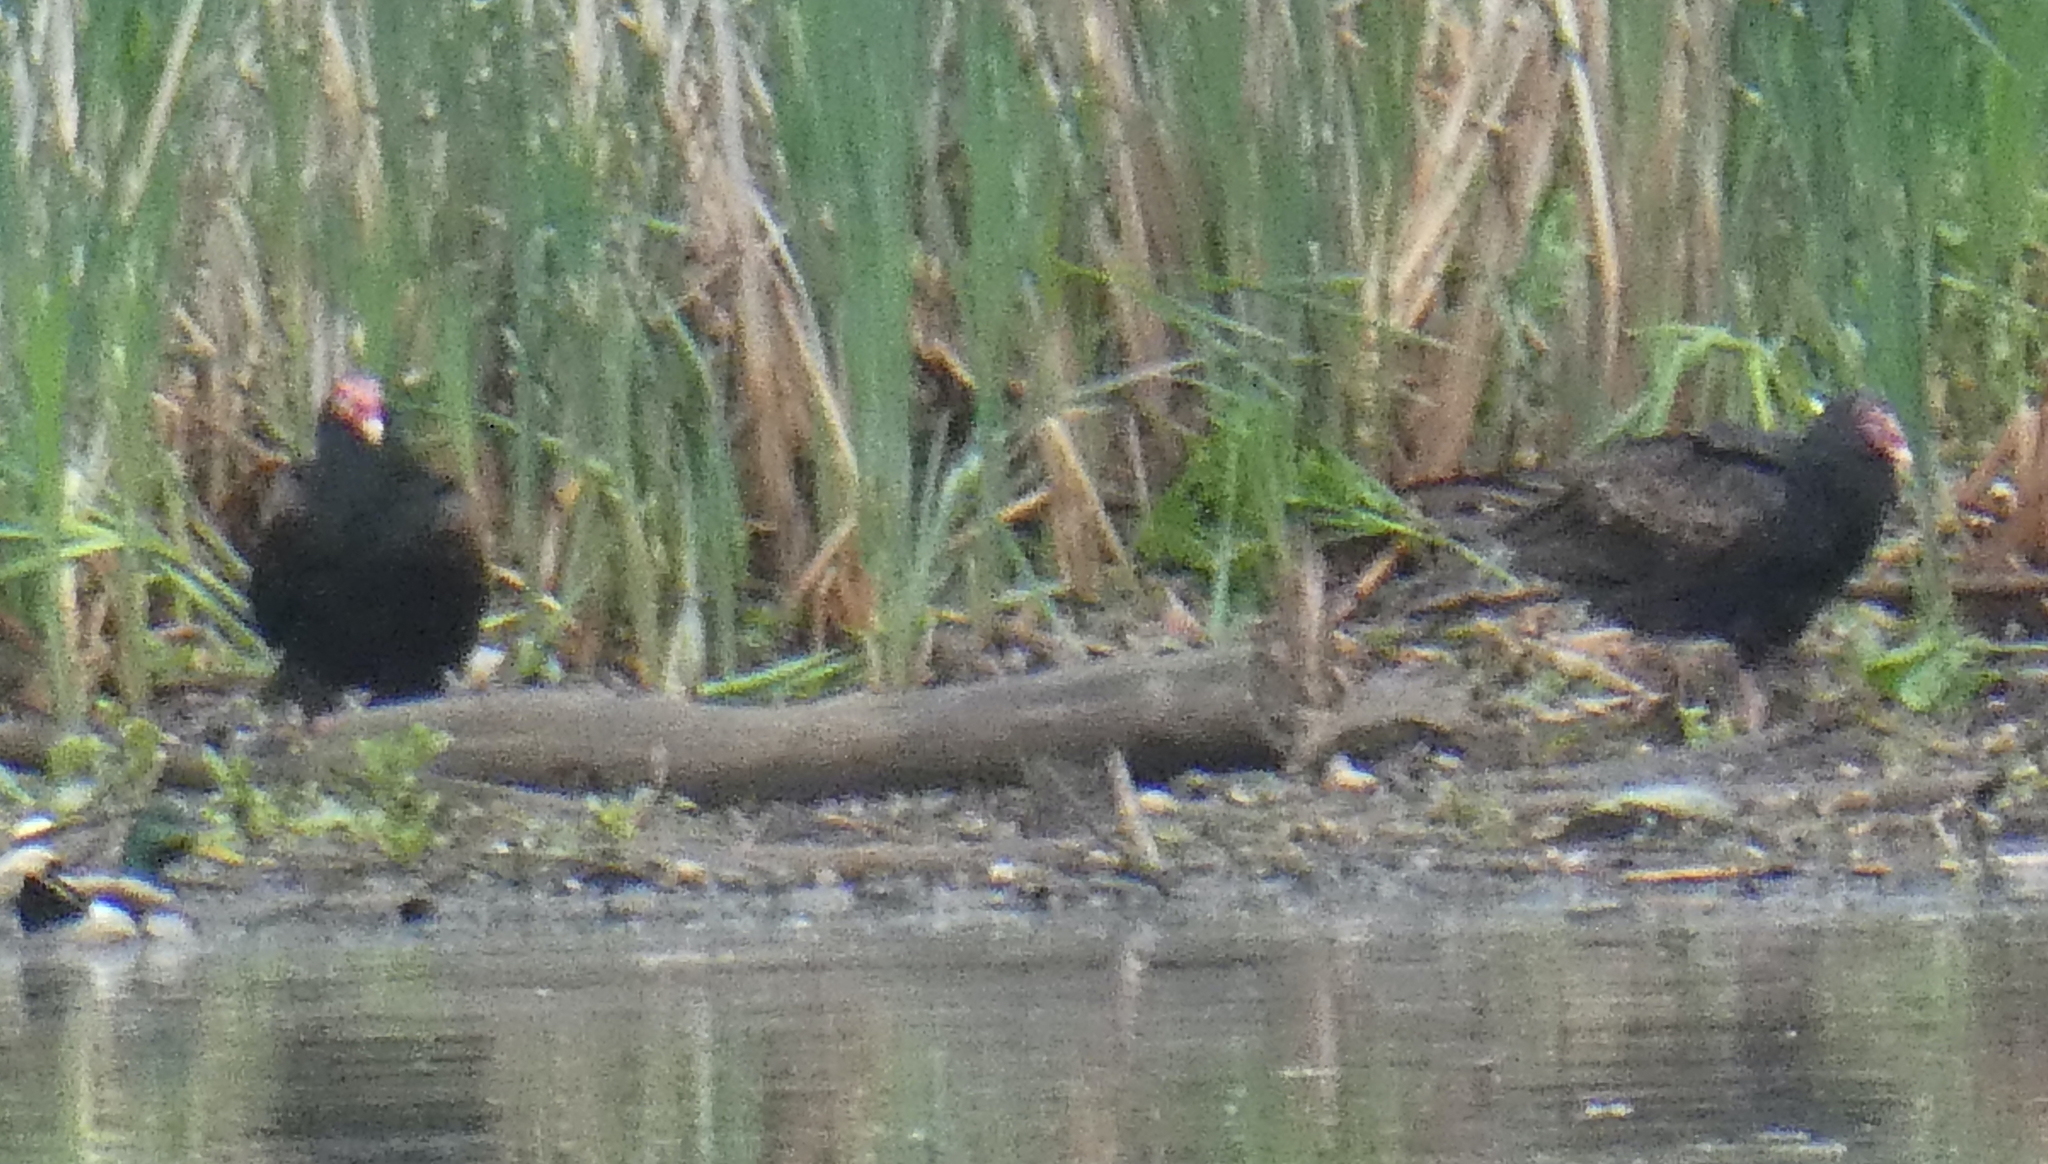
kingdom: Animalia
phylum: Chordata
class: Aves
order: Accipitriformes
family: Cathartidae
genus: Cathartes
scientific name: Cathartes aura
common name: Turkey vulture
